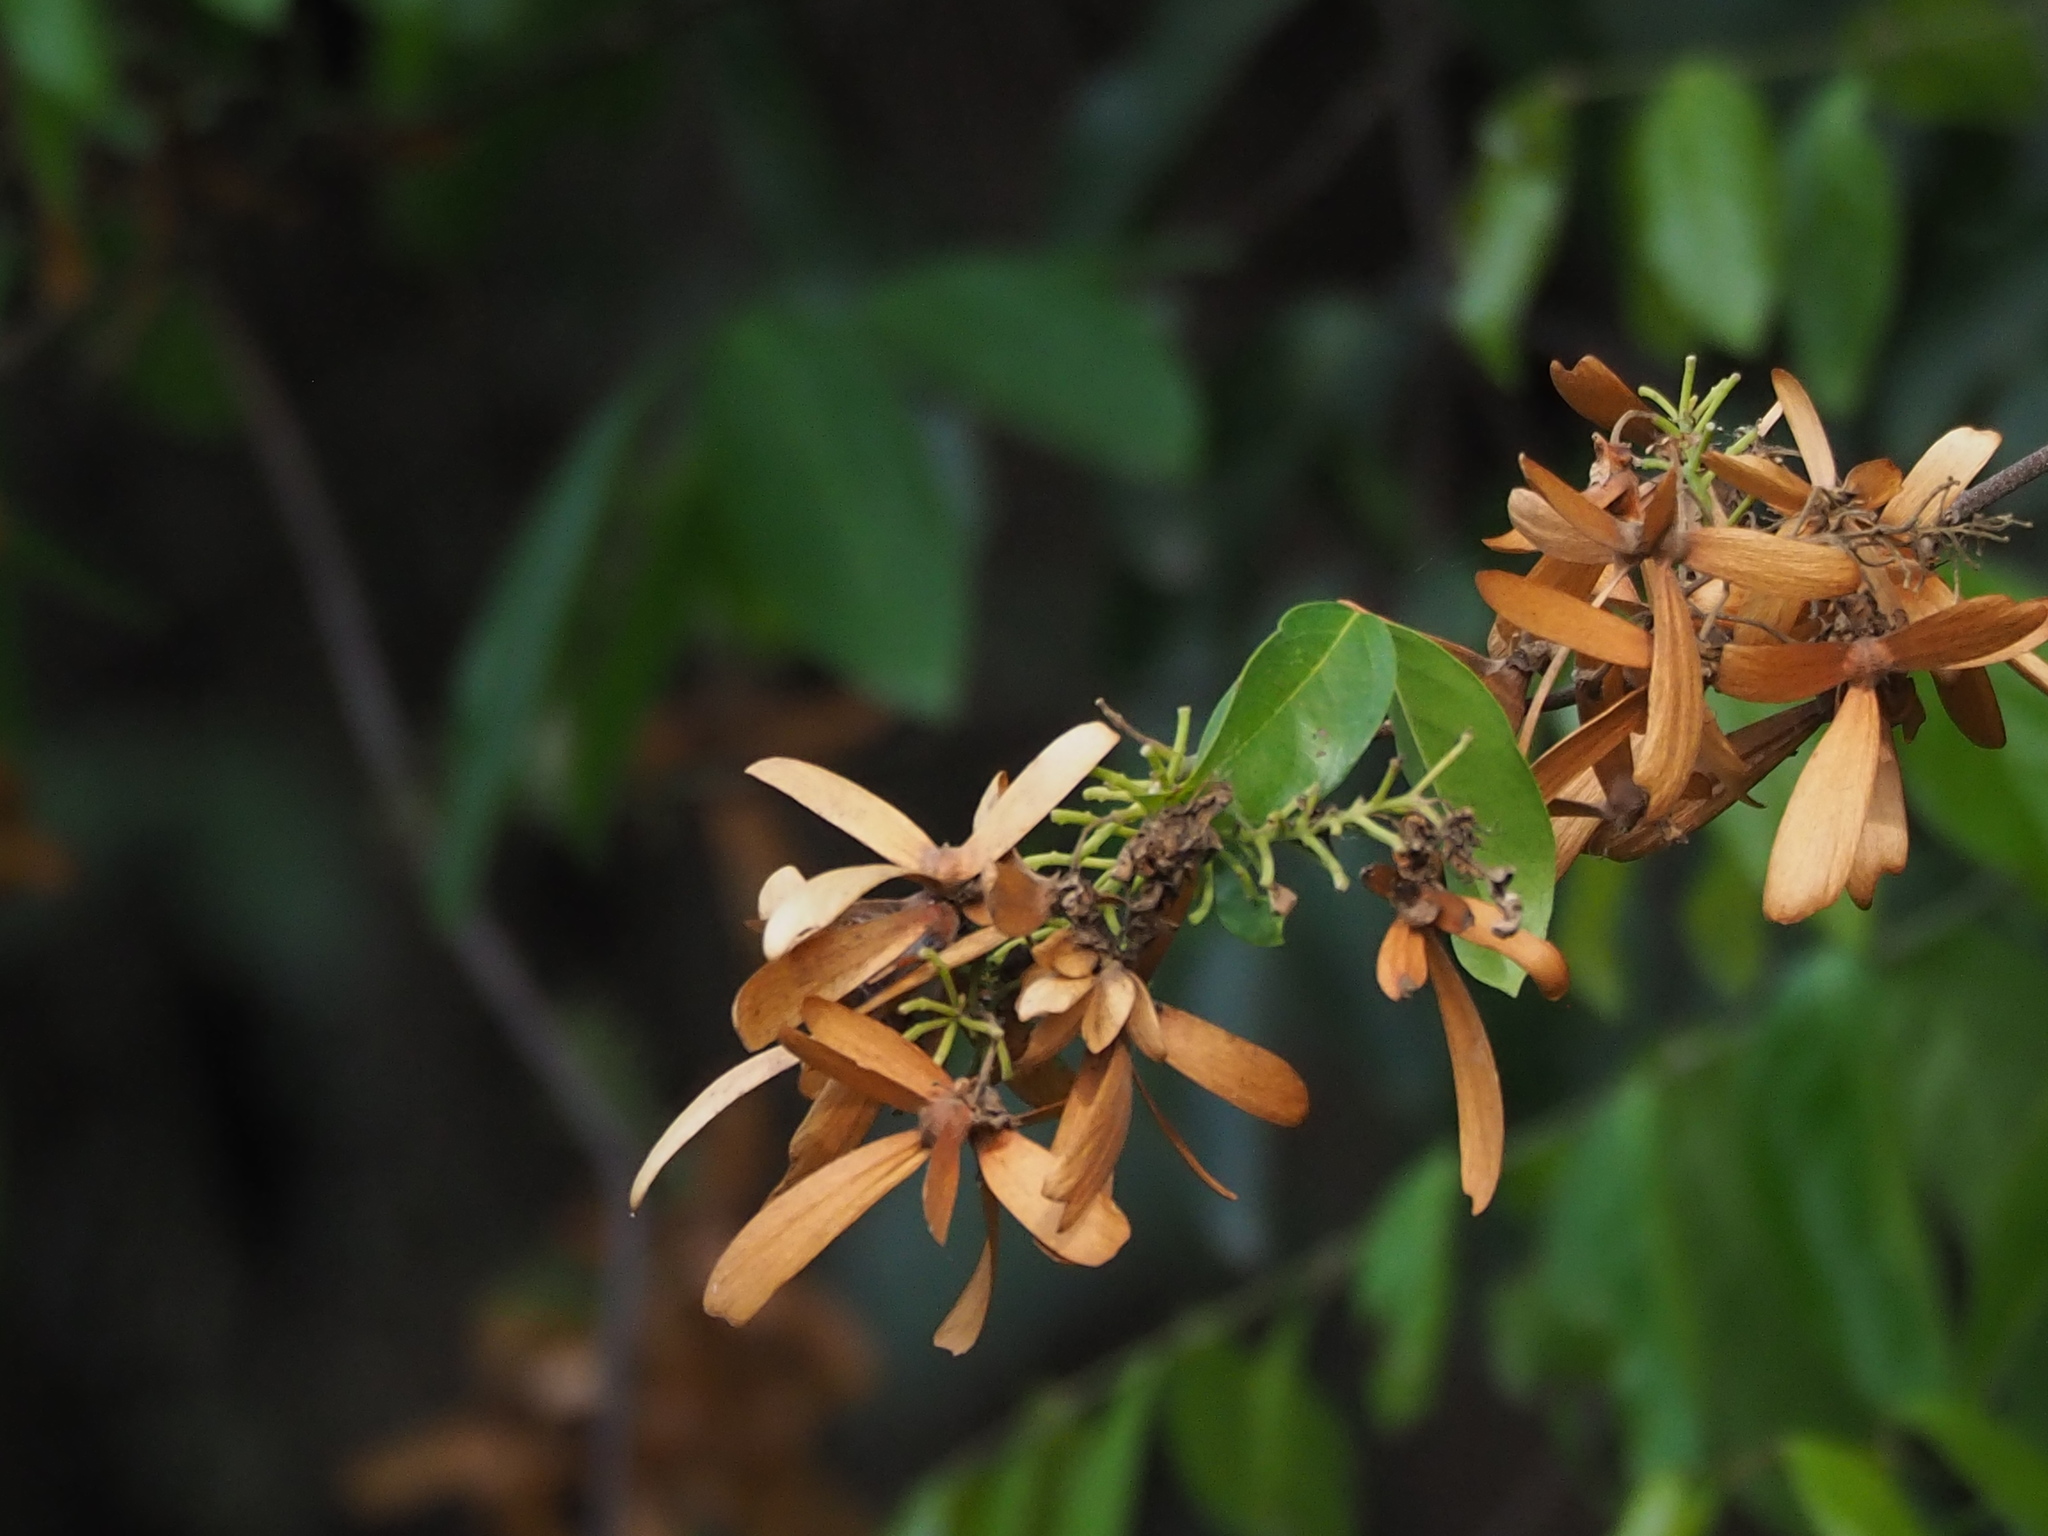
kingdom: Plantae
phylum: Tracheophyta
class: Magnoliopsida
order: Malpighiales
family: Malpighiaceae
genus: Hiptage
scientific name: Hiptage benghalensis
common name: Hiptage
